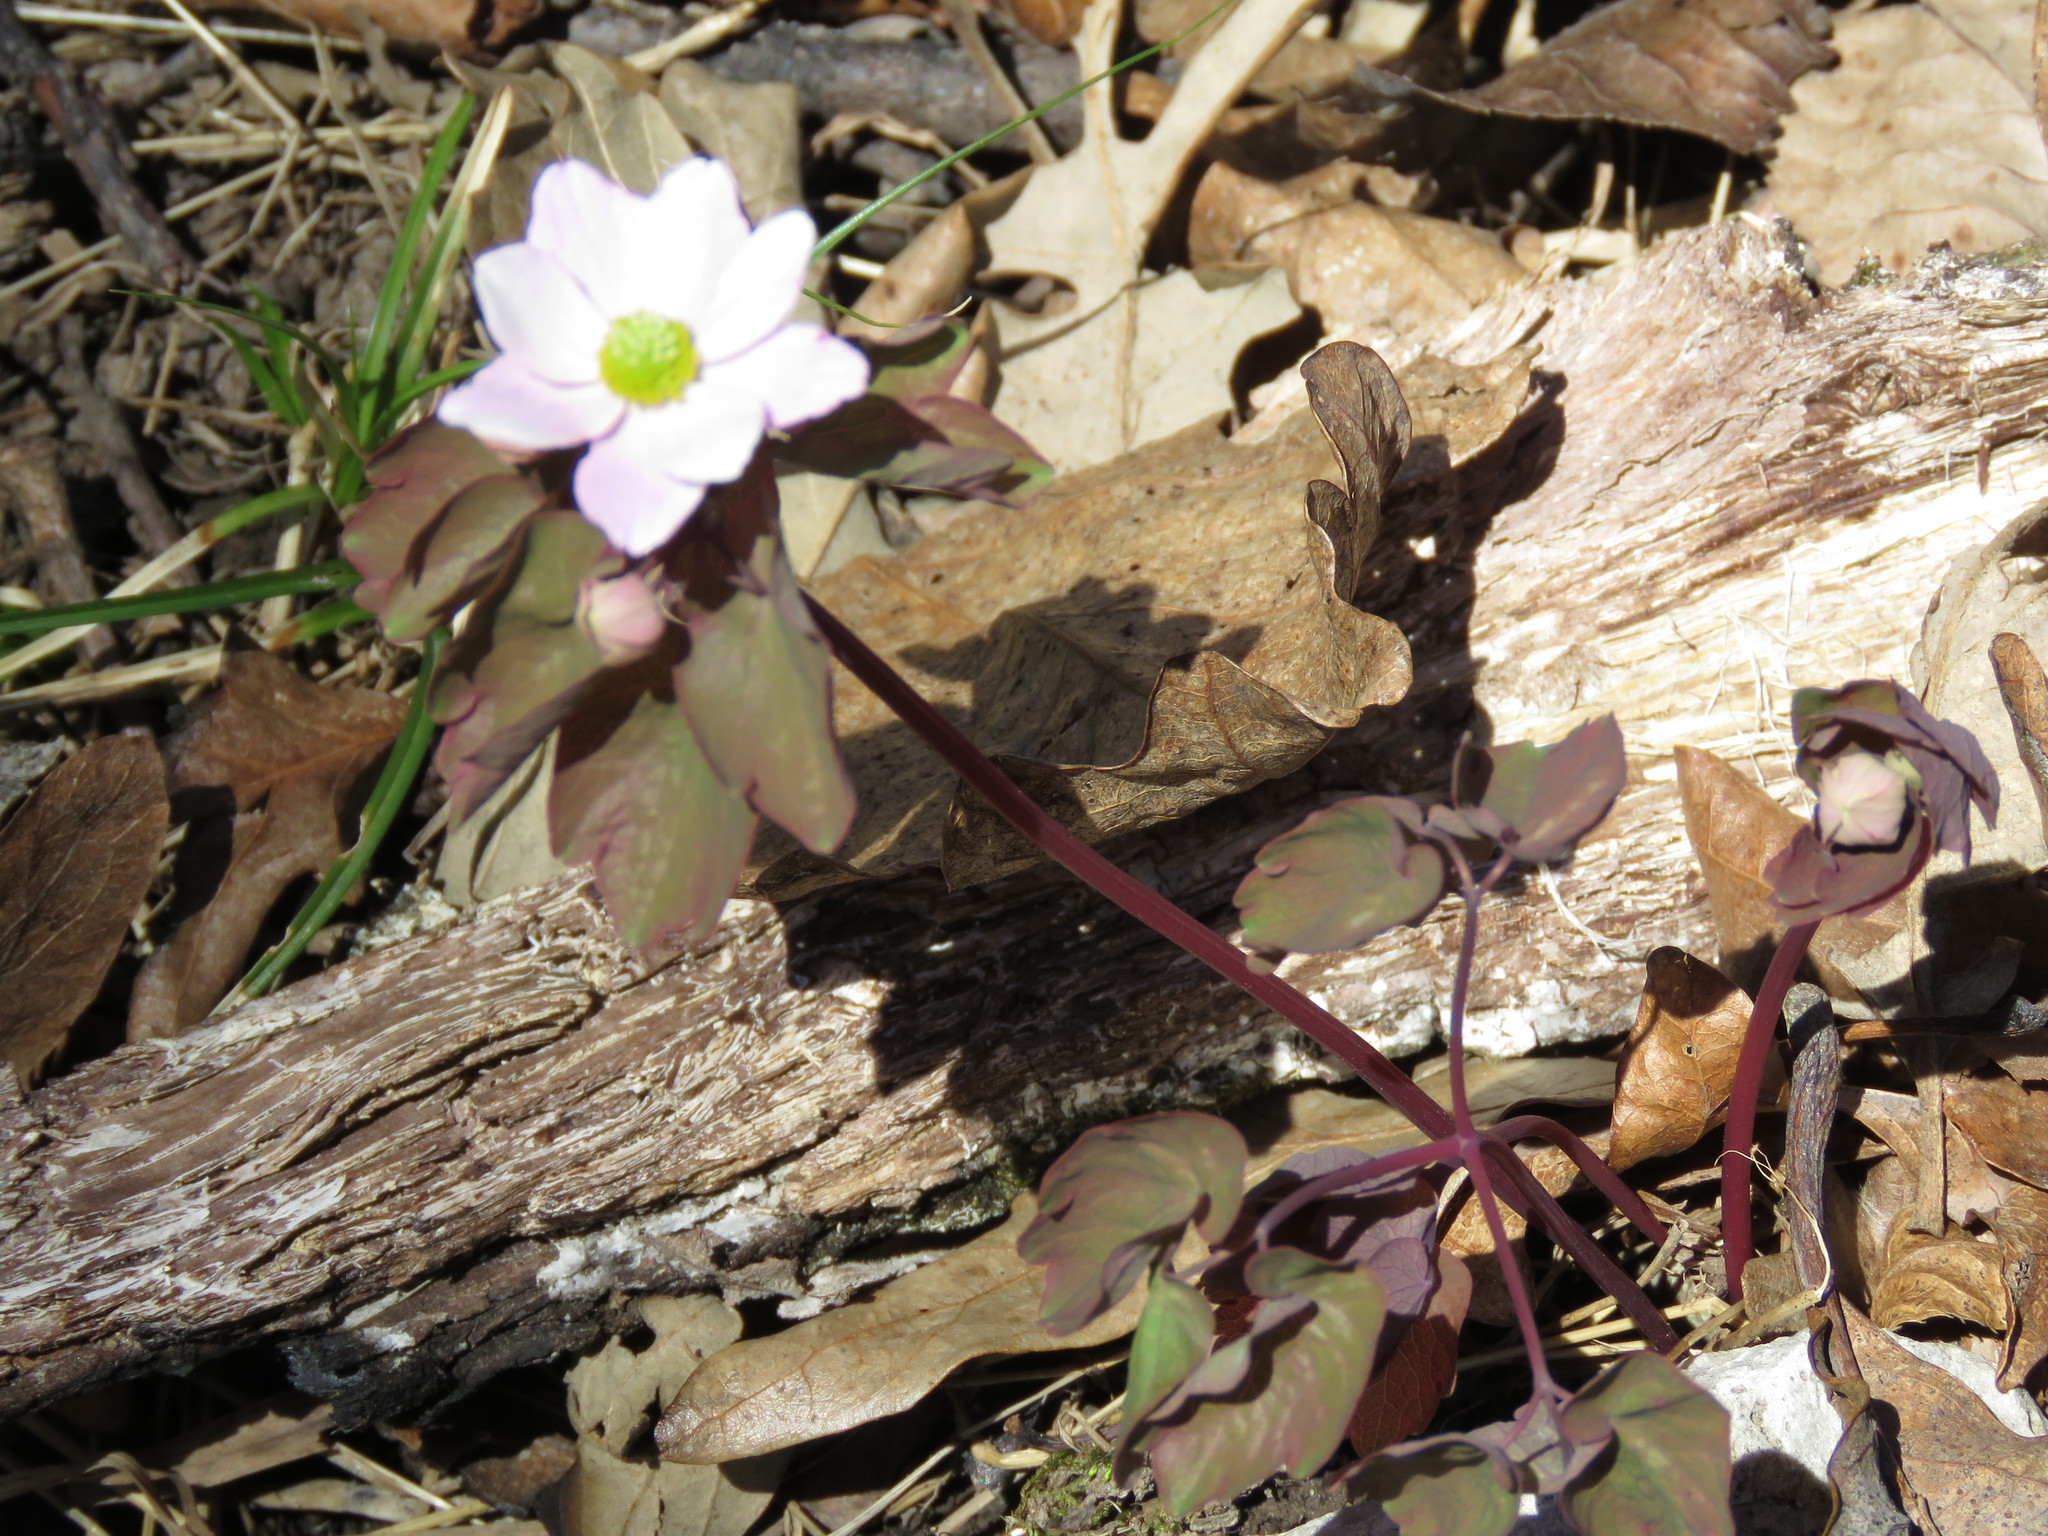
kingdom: Plantae
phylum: Tracheophyta
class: Magnoliopsida
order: Ranunculales
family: Ranunculaceae
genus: Thalictrum
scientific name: Thalictrum thalictroides
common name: Rue-anemone
